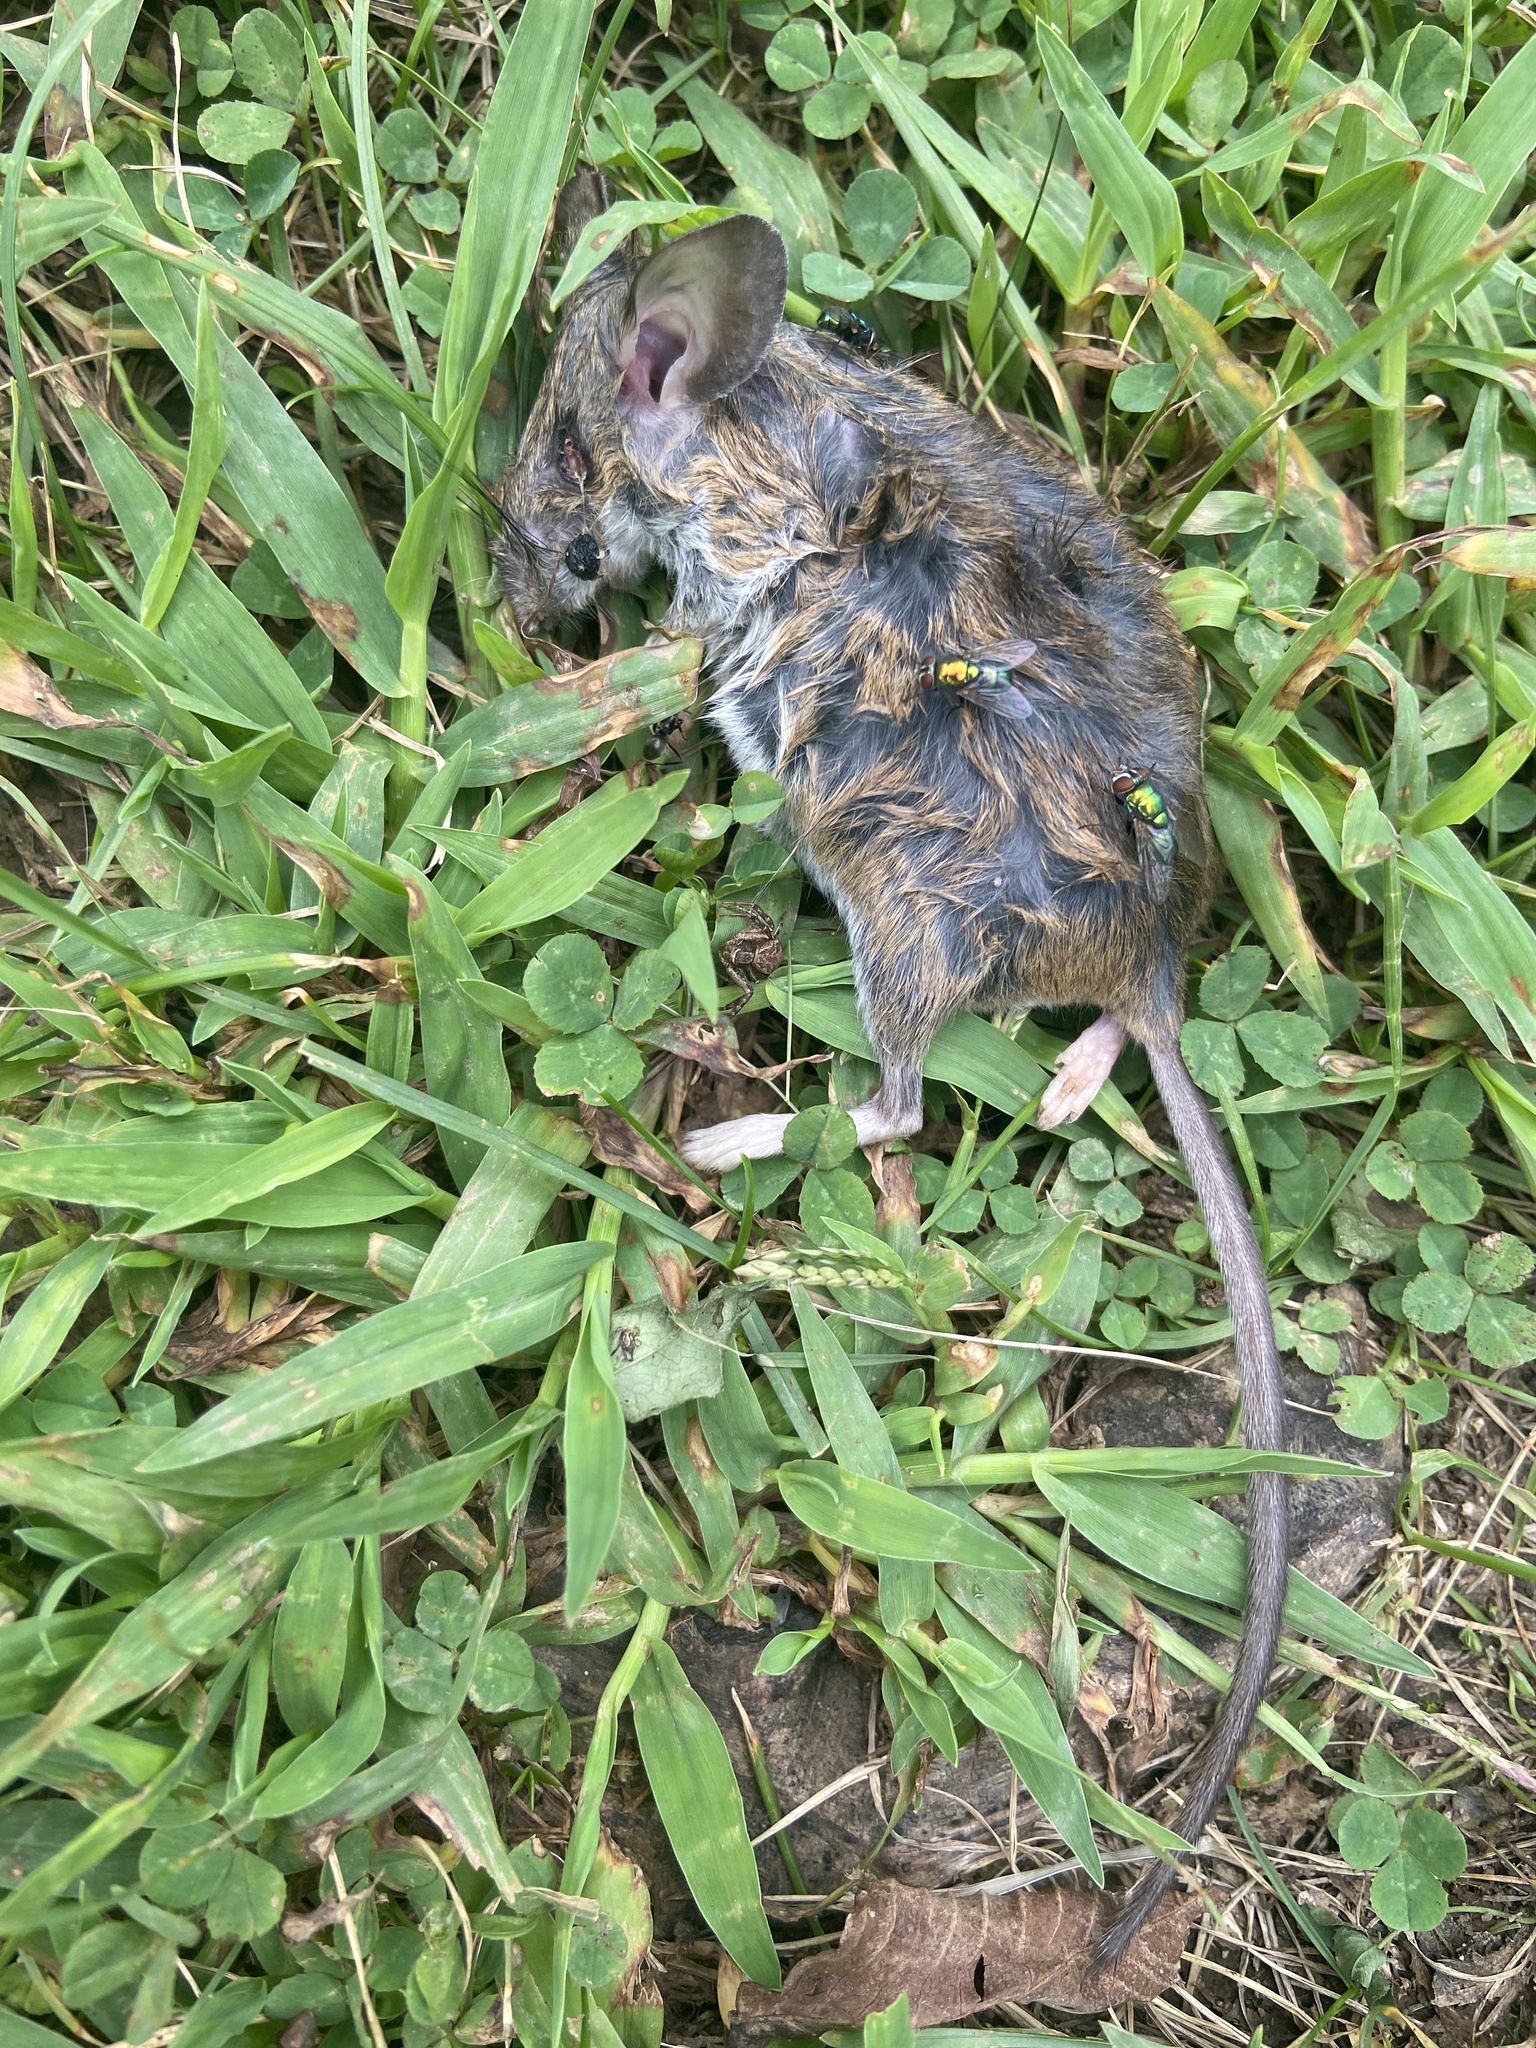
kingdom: Animalia
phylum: Chordata
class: Mammalia
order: Rodentia
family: Cricetidae
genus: Peromyscus
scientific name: Peromyscus leucopus
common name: White-footed deermouse
